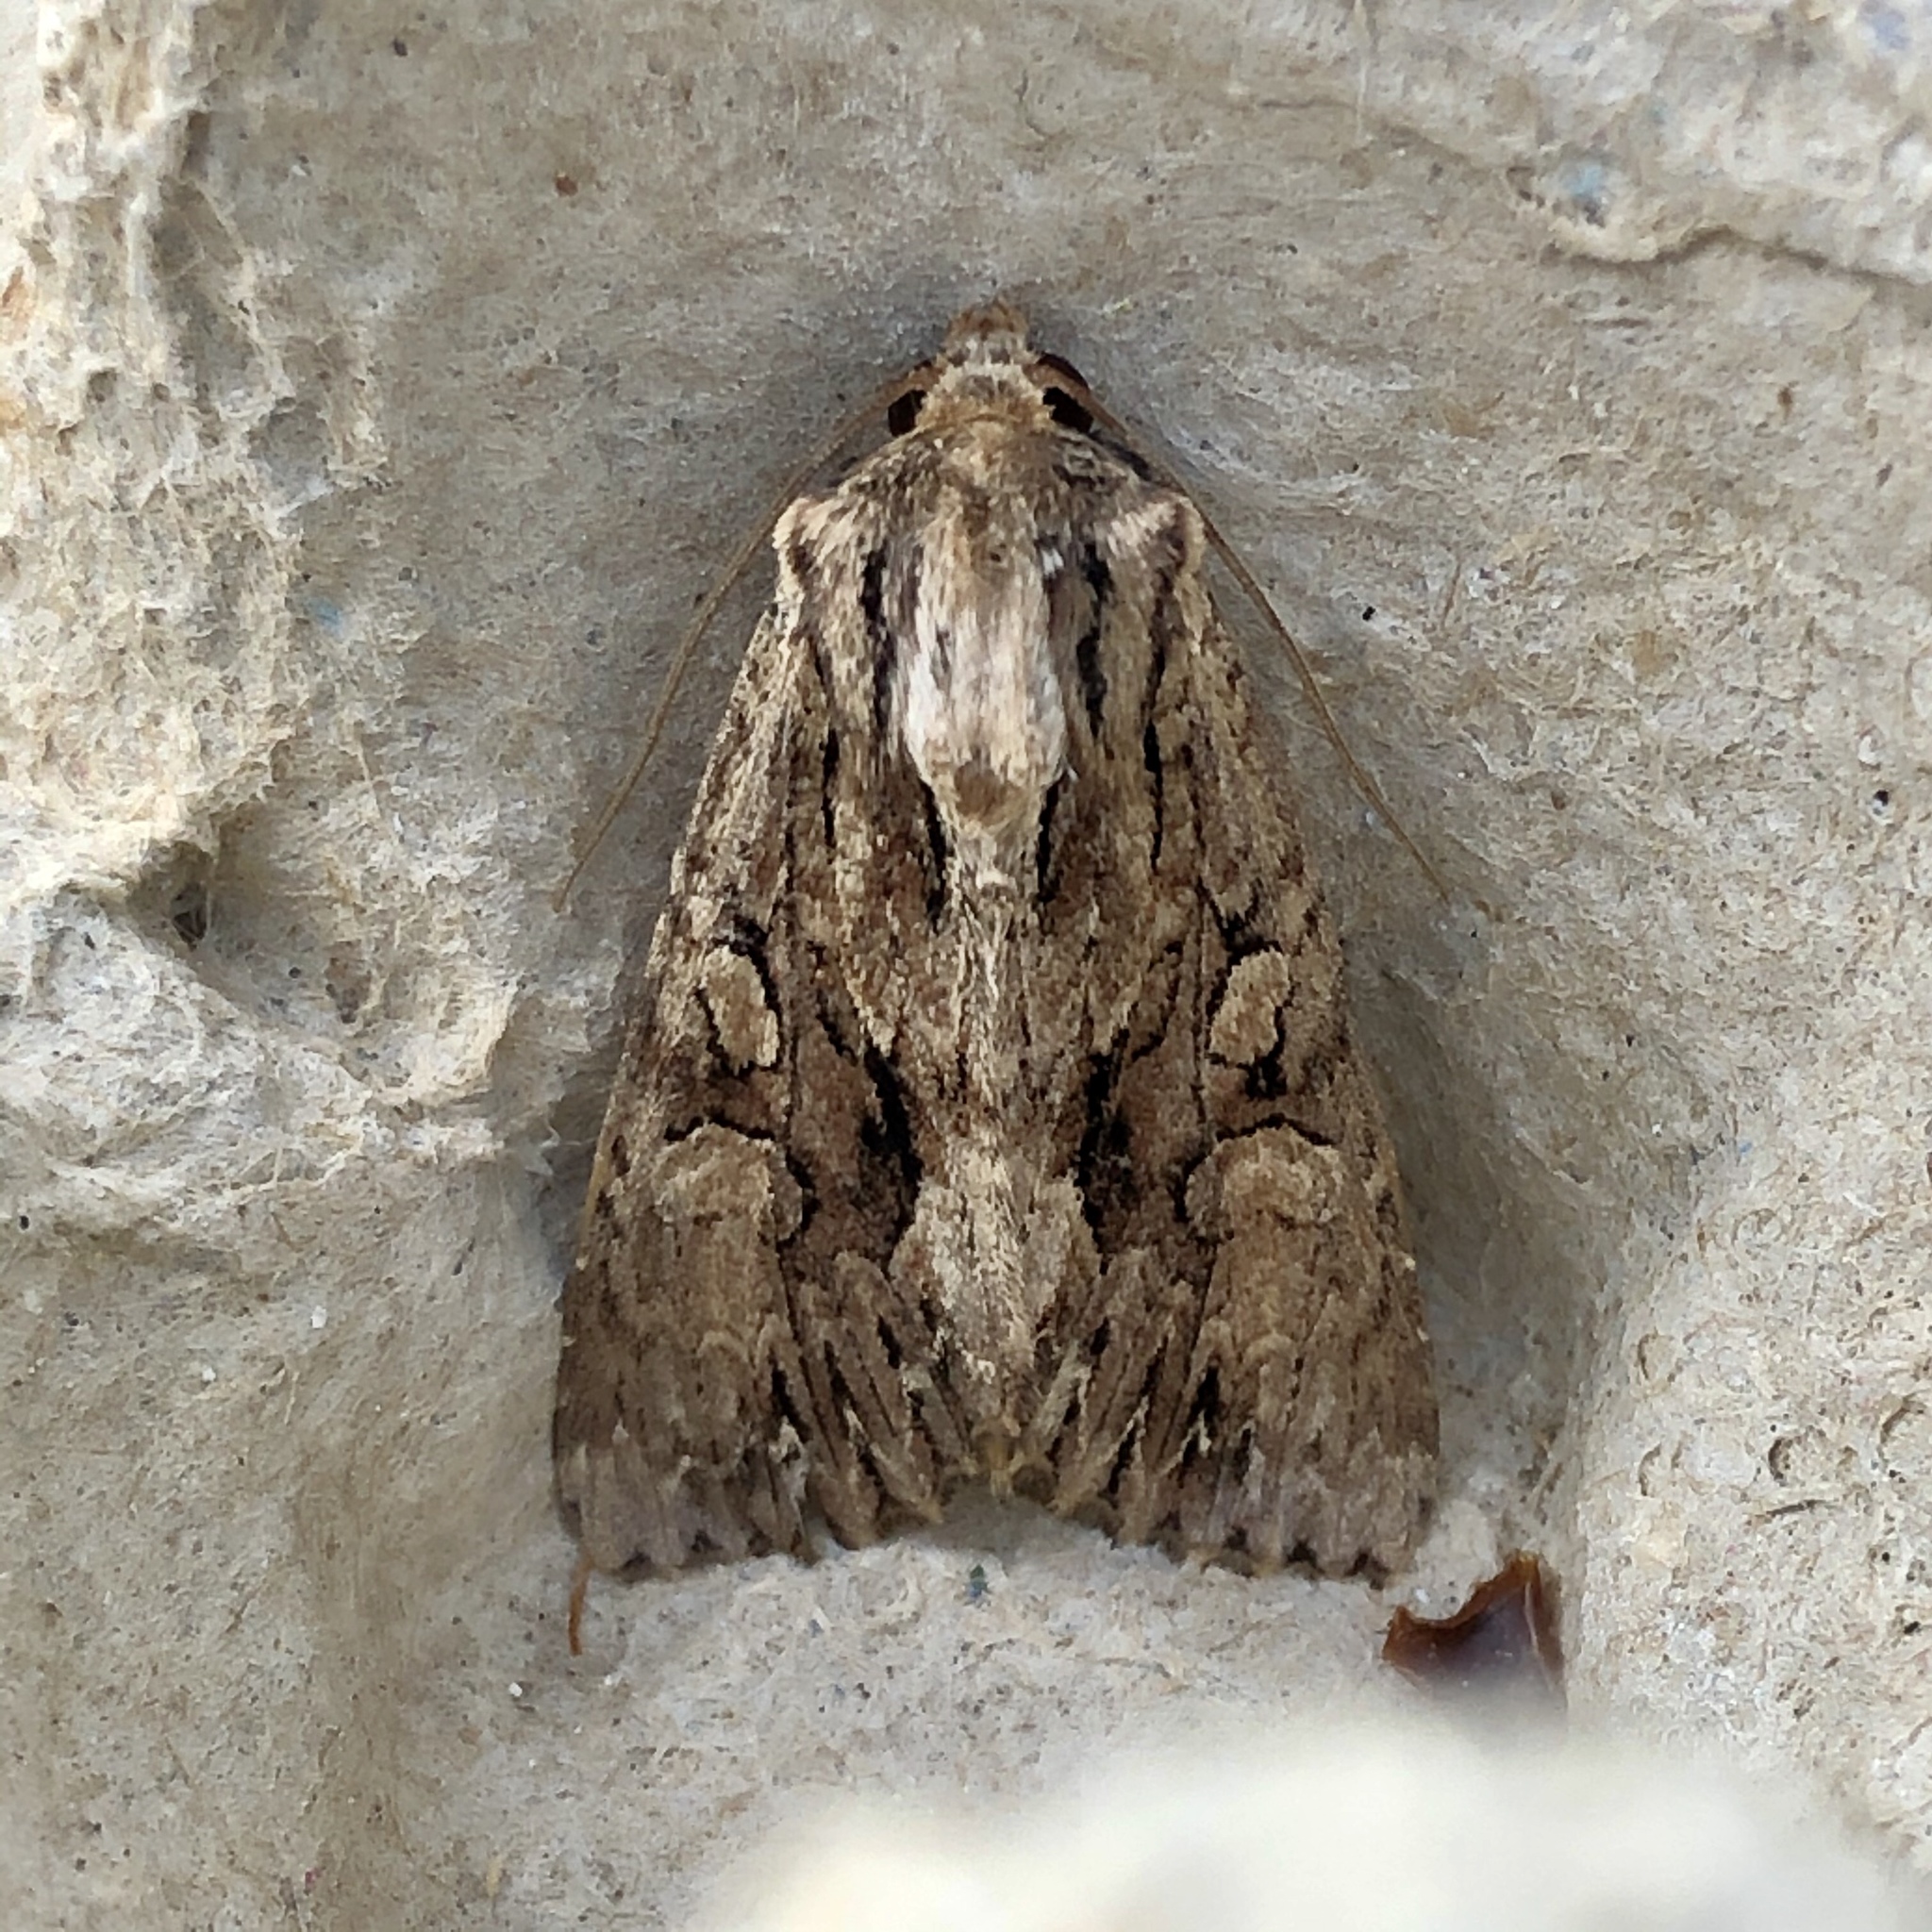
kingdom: Animalia
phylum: Arthropoda
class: Insecta
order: Lepidoptera
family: Noctuidae
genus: Apamea
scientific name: Apamea monoglypha
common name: Dark arches
